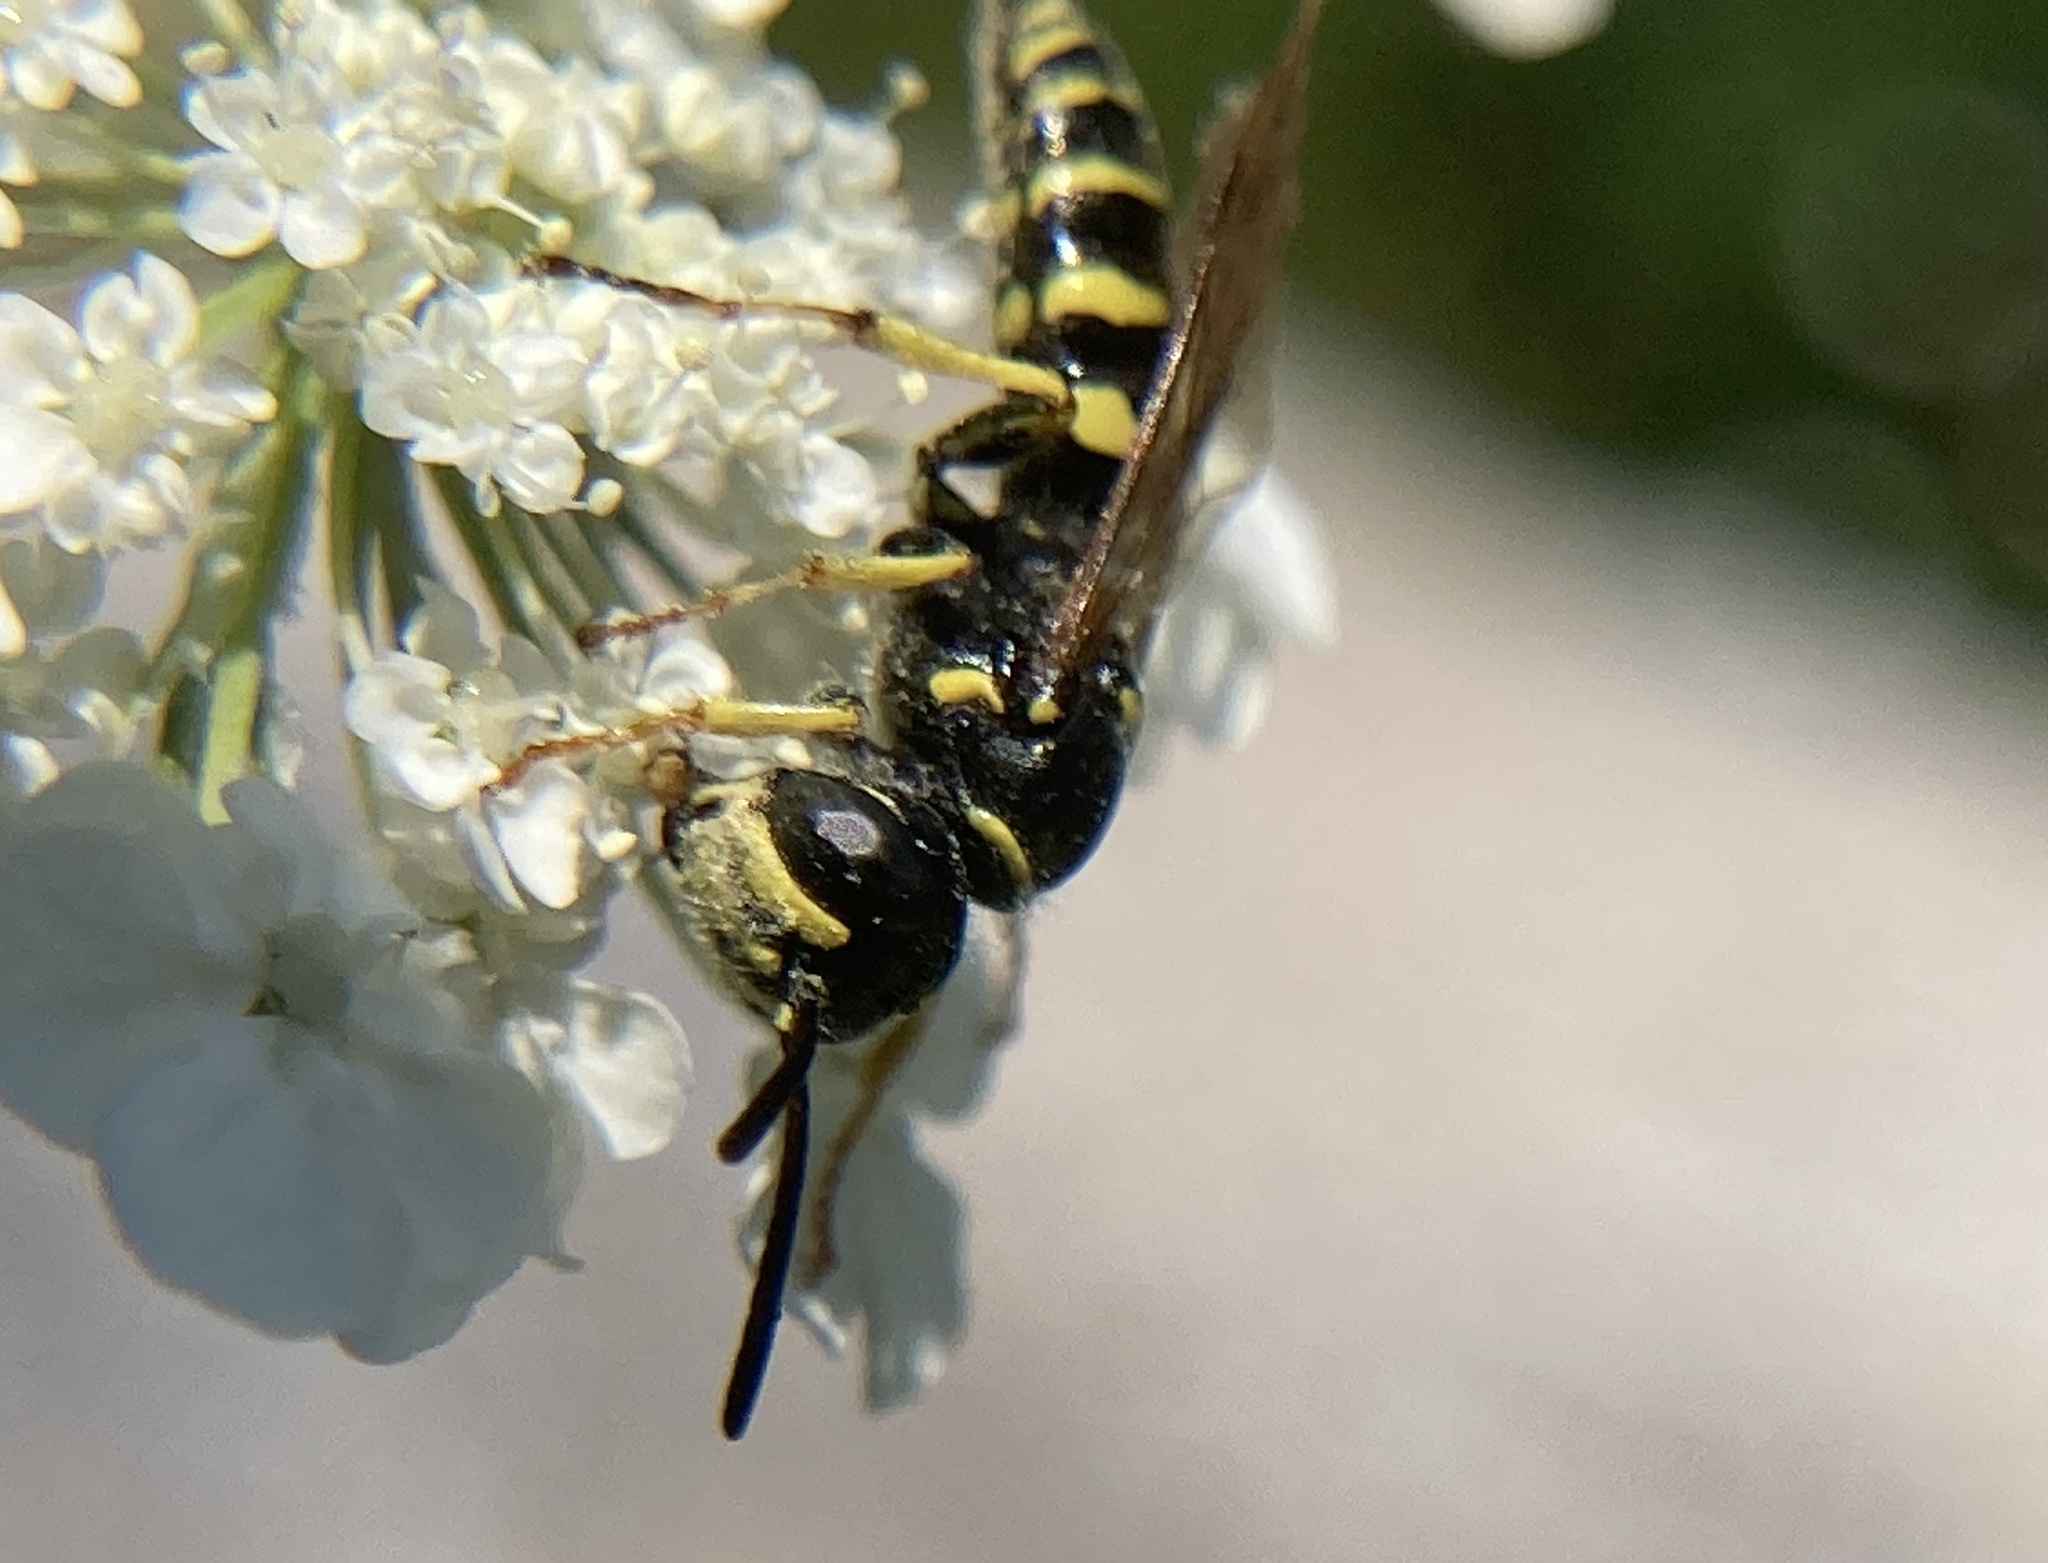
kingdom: Animalia
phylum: Arthropoda
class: Insecta
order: Hymenoptera
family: Crabronidae
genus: Aphilanthops
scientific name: Aphilanthops frigidus
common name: Queen ant kidnapper
